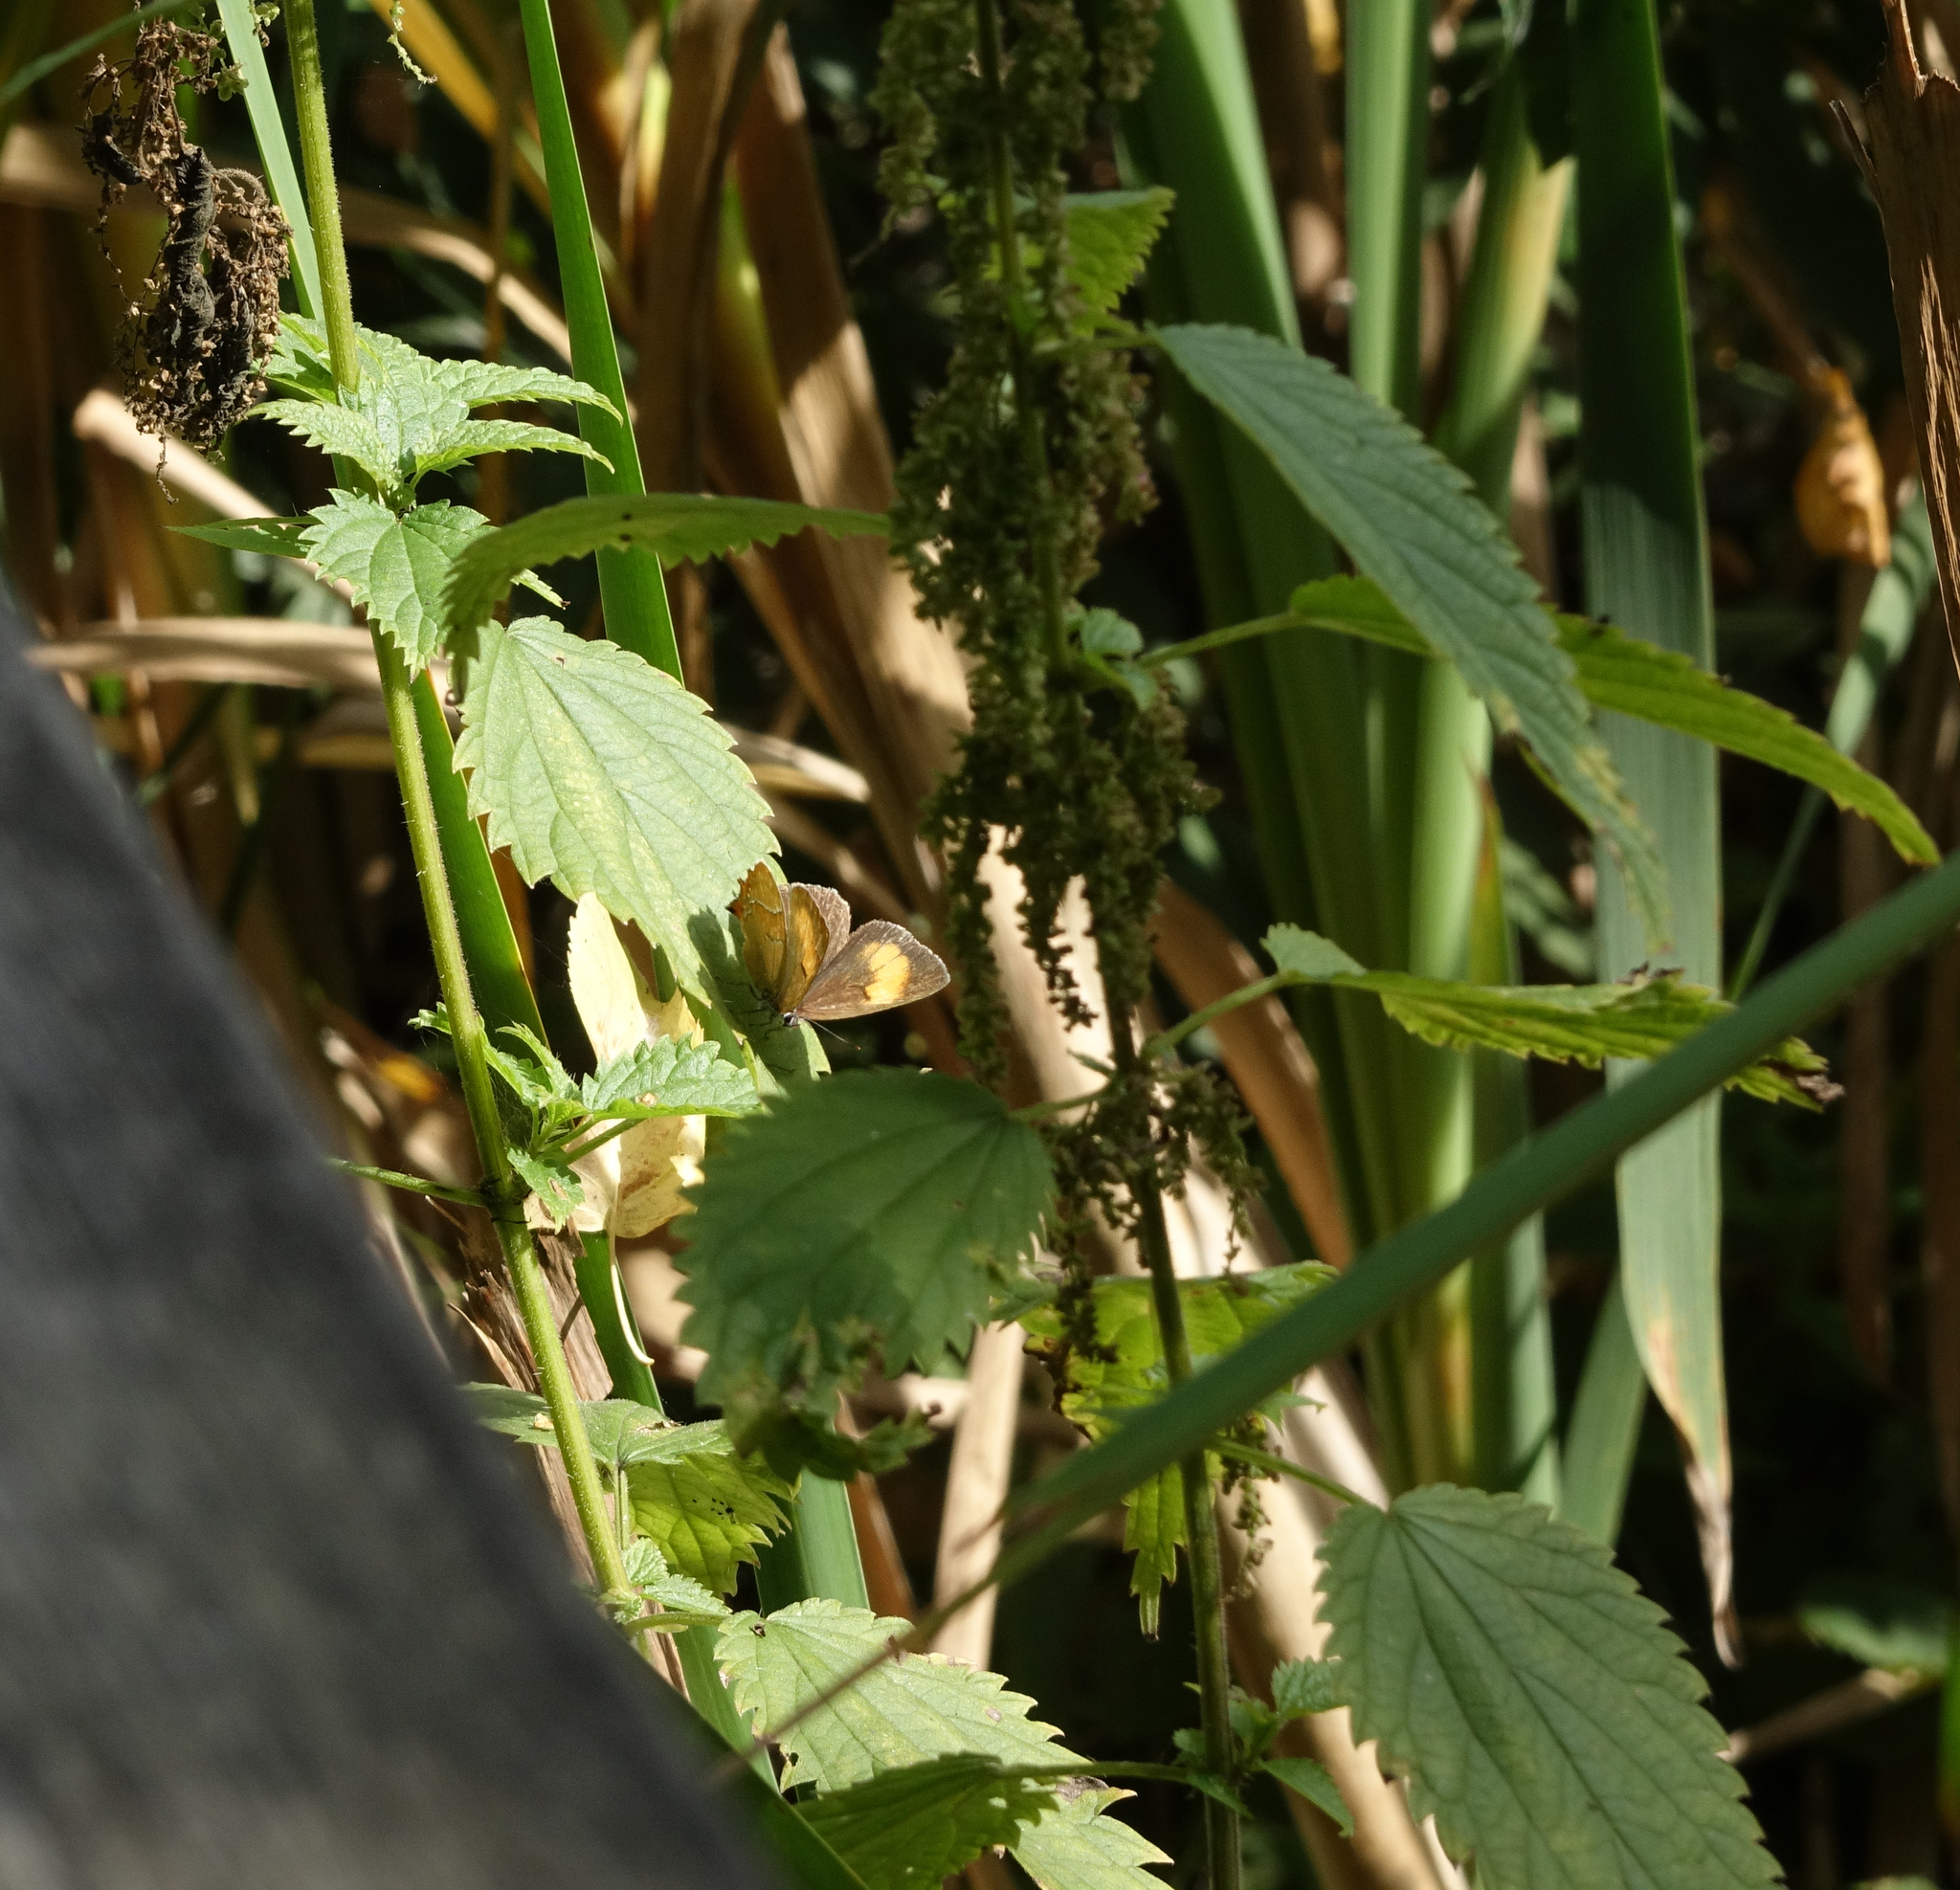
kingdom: Plantae
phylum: Tracheophyta
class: Magnoliopsida
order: Rosales
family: Urticaceae
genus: Urtica
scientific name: Urtica dioica
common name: Common nettle
